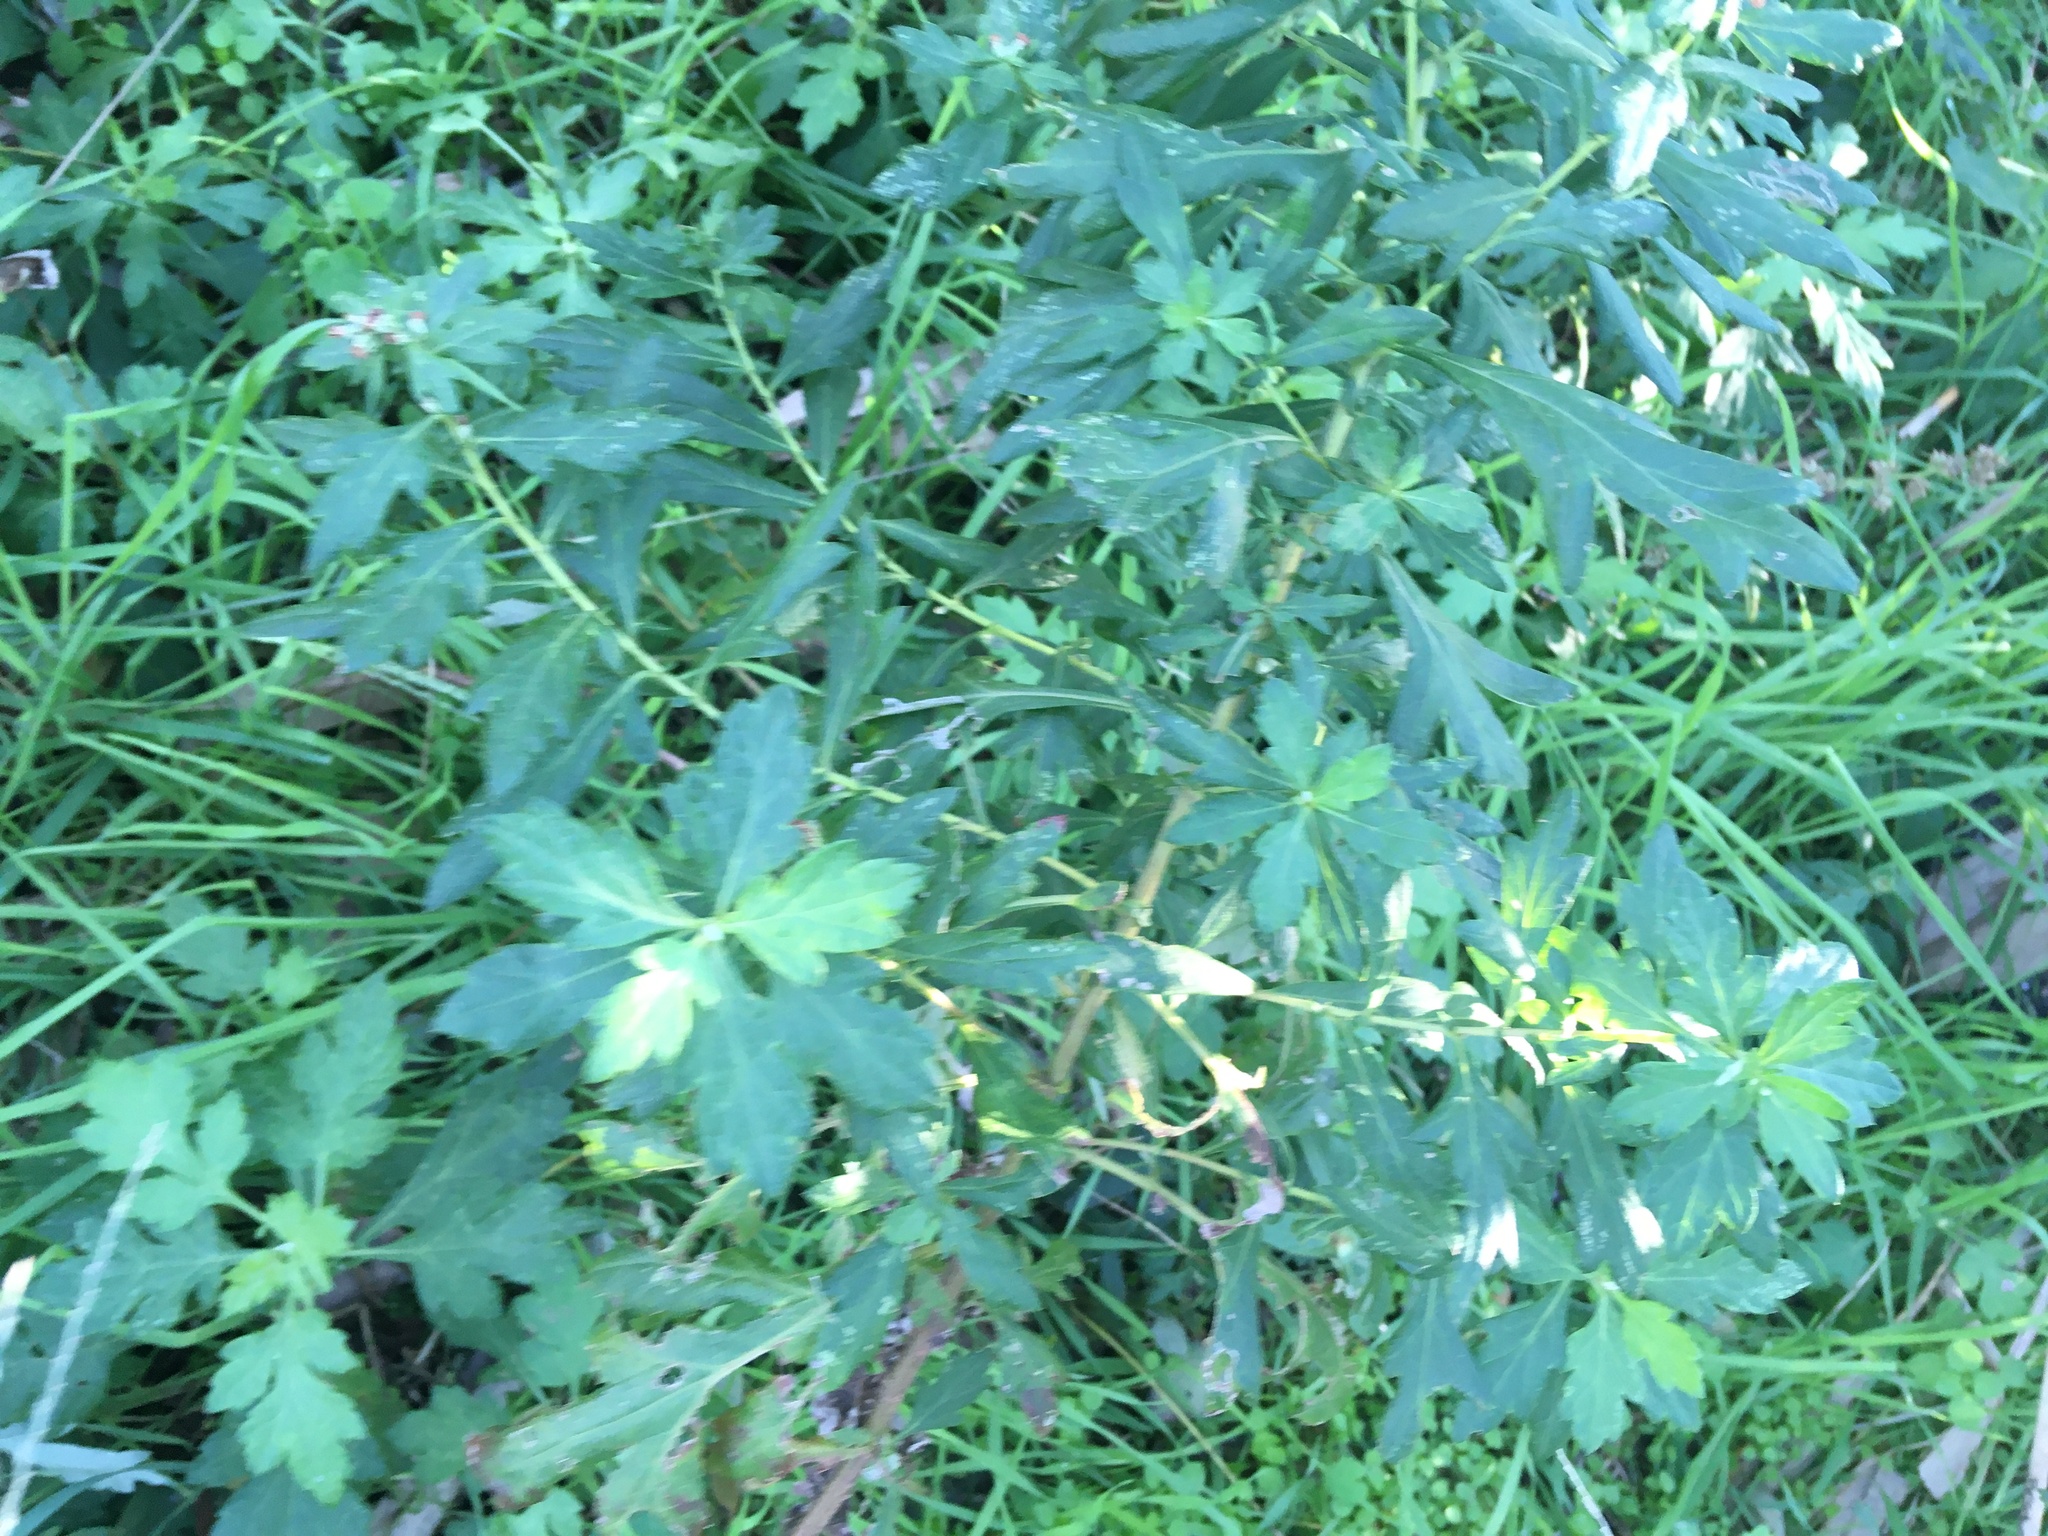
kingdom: Plantae
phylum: Tracheophyta
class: Magnoliopsida
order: Asterales
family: Asteraceae
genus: Artemisia
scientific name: Artemisia vulgaris
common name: Mugwort
